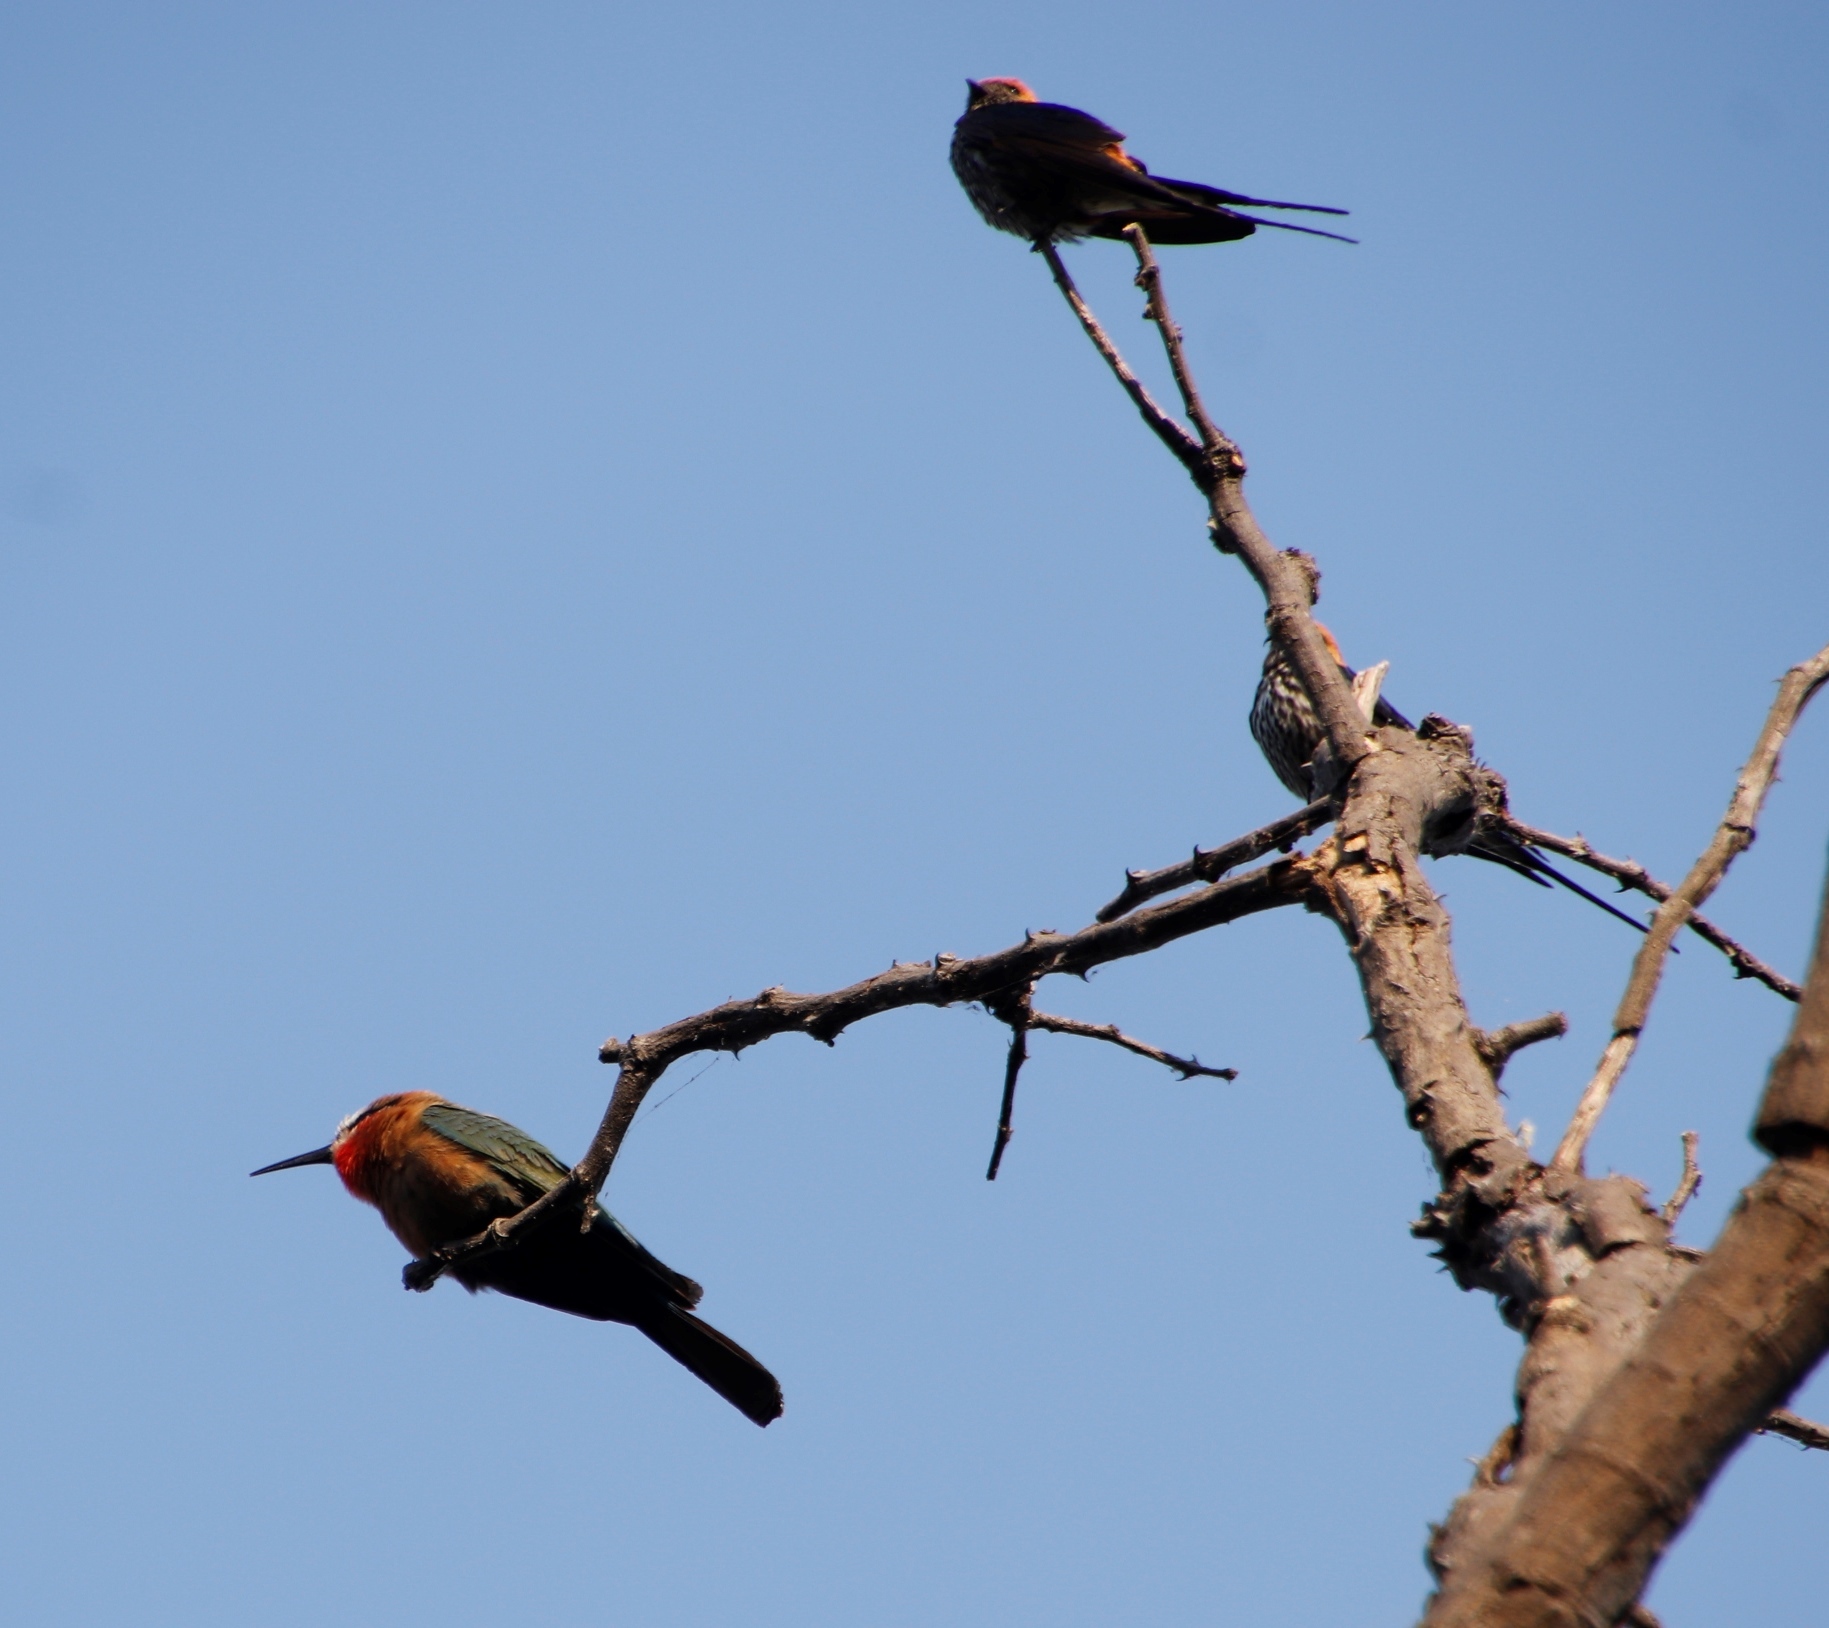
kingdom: Animalia
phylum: Chordata
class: Aves
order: Passeriformes
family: Hirundinidae
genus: Cecropis
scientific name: Cecropis abyssinica
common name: Lesser striped-swallow
